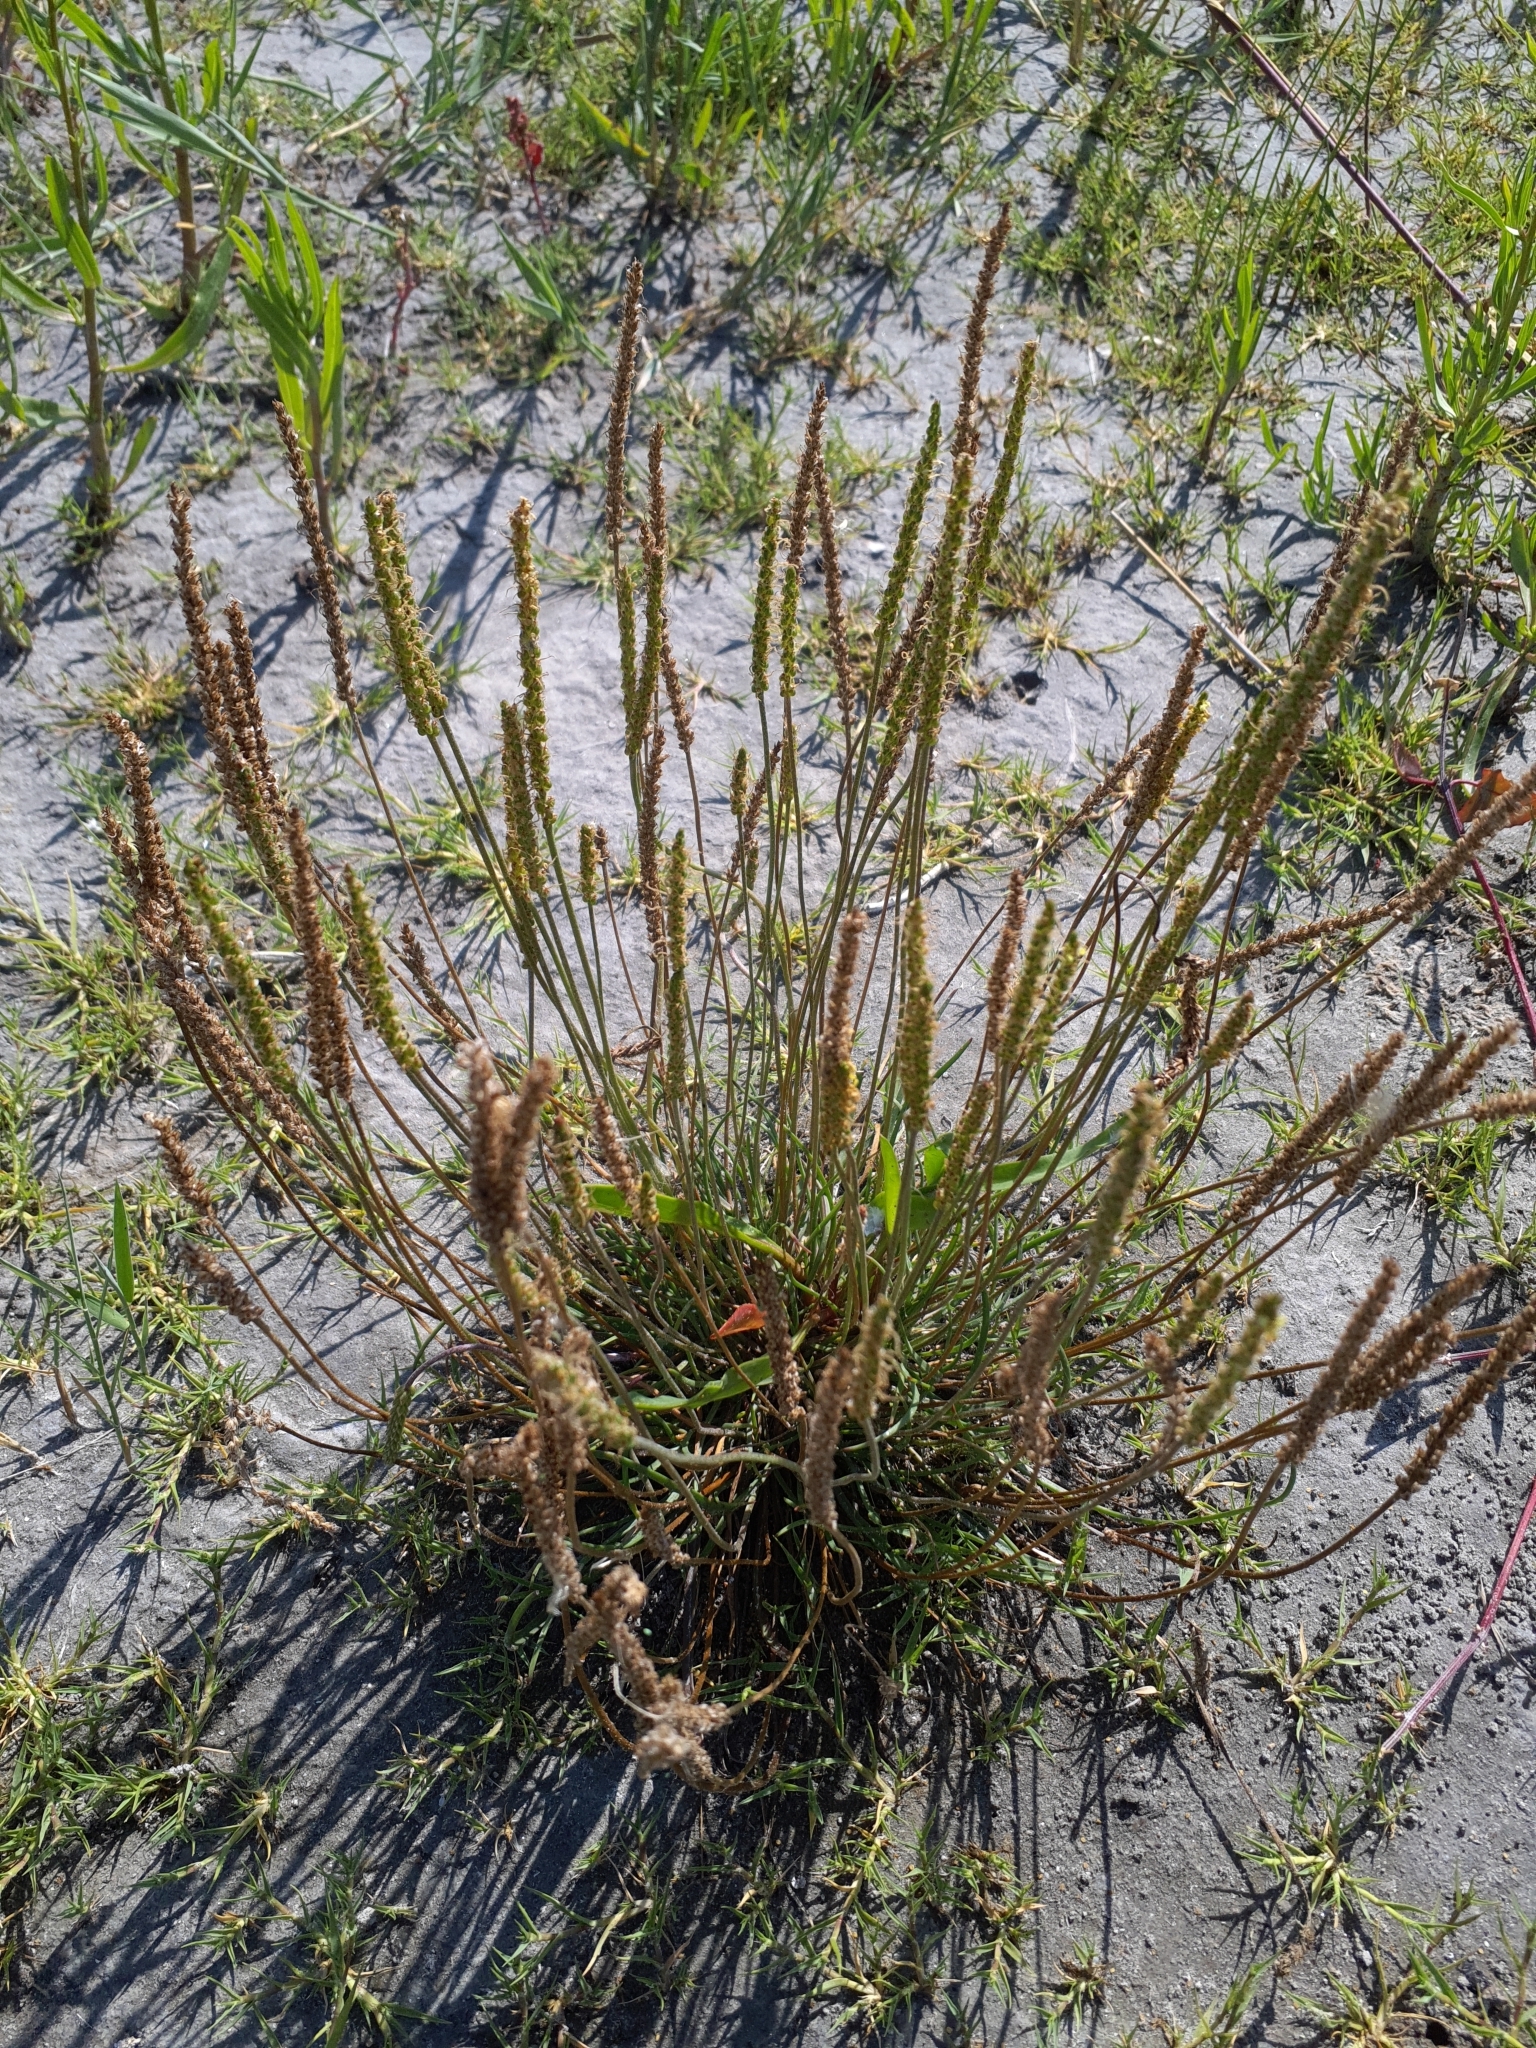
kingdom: Plantae
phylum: Tracheophyta
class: Magnoliopsida
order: Lamiales
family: Plantaginaceae
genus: Plantago
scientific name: Plantago maritima
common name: Sea plantain
